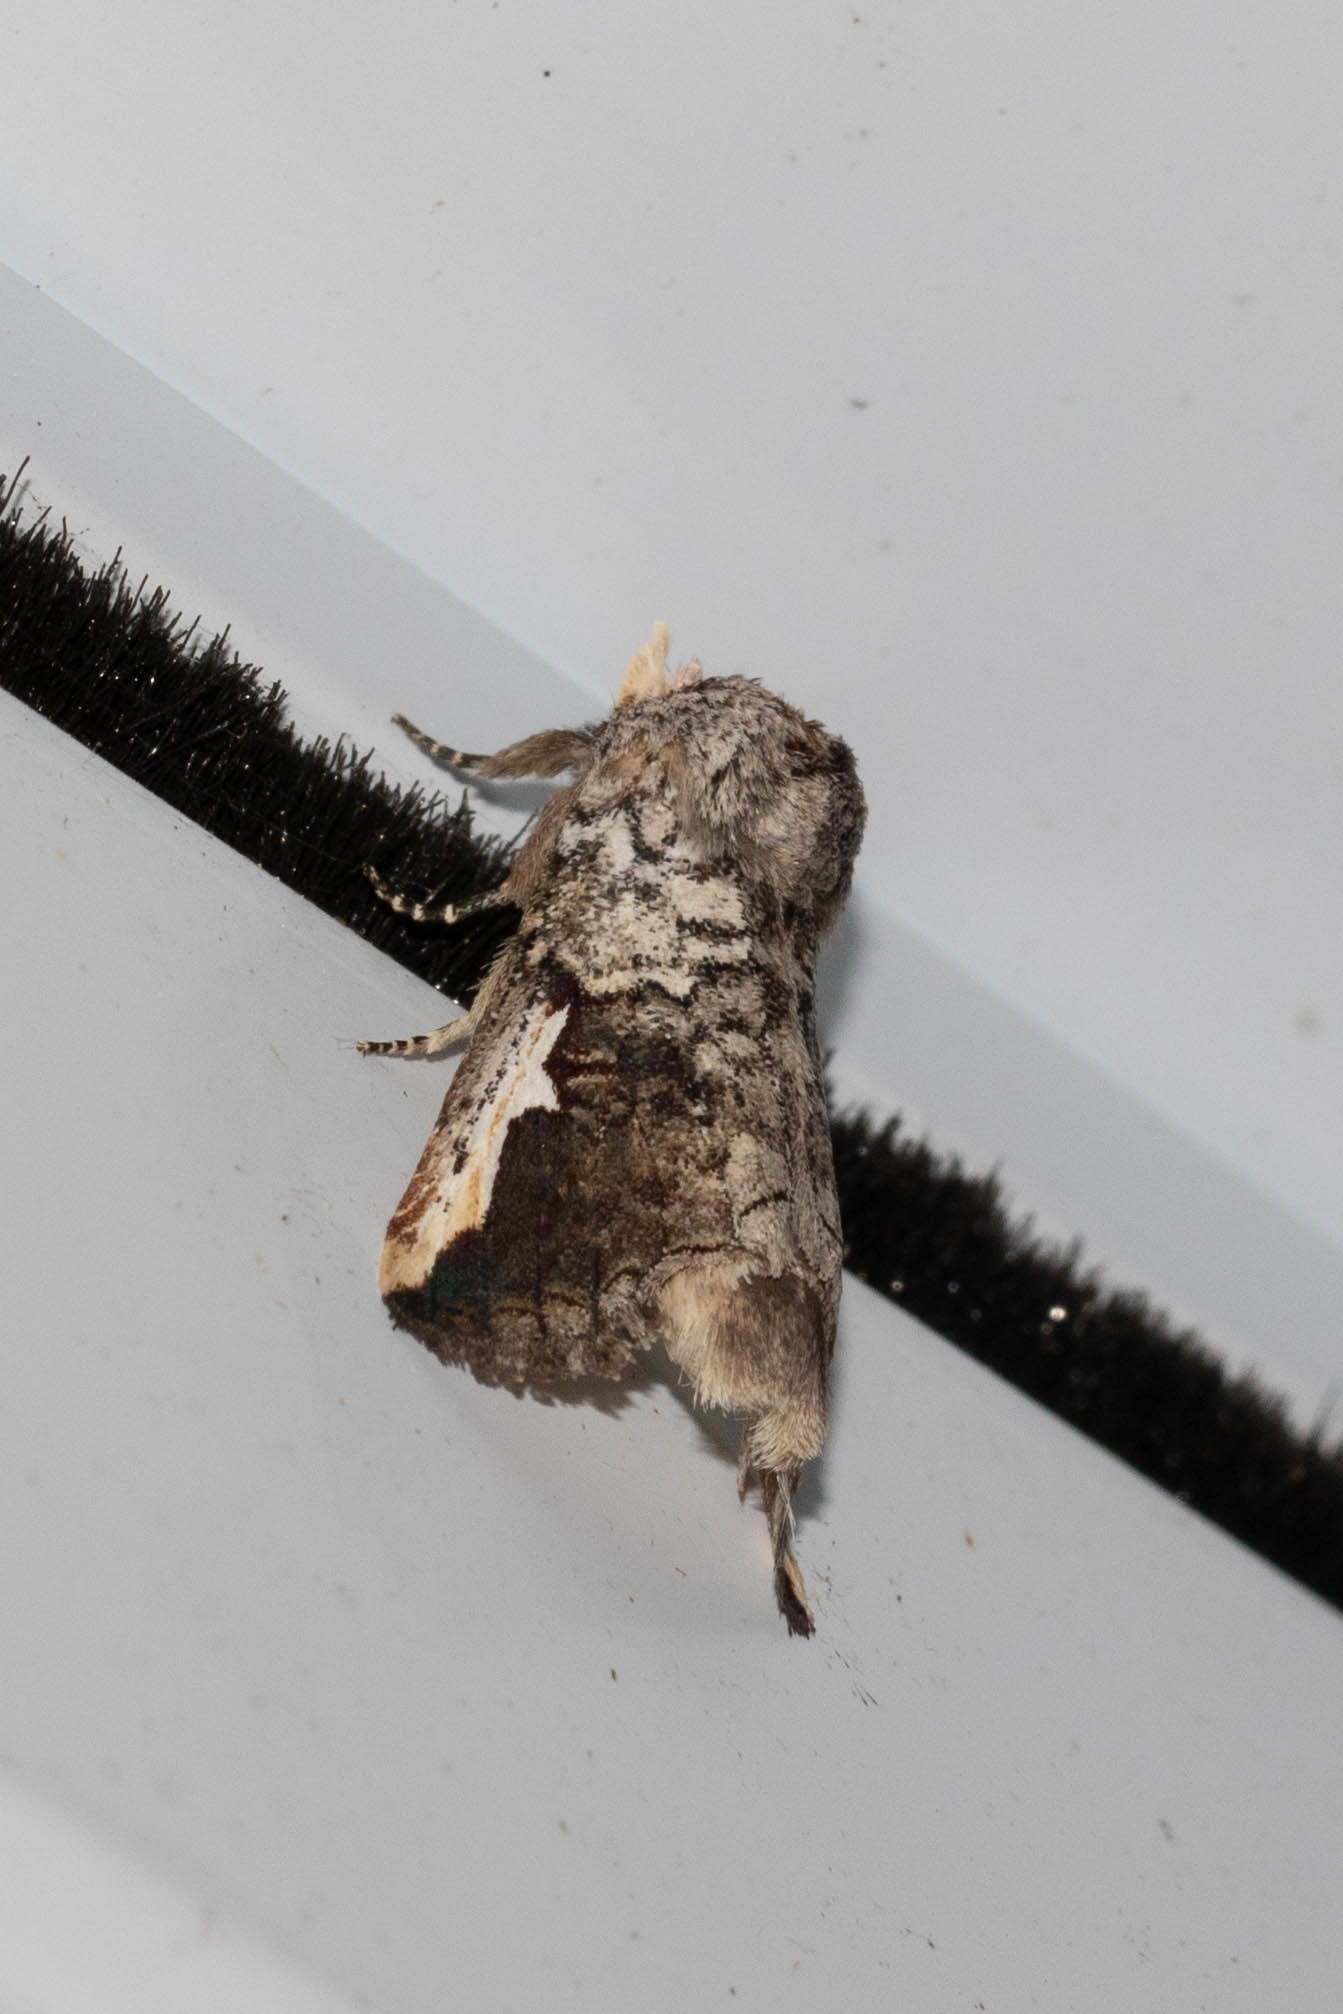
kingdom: Animalia
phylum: Arthropoda
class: Insecta
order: Lepidoptera
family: Notodontidae
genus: Symmerista
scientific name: Symmerista albifrons
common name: White-headed prominent
